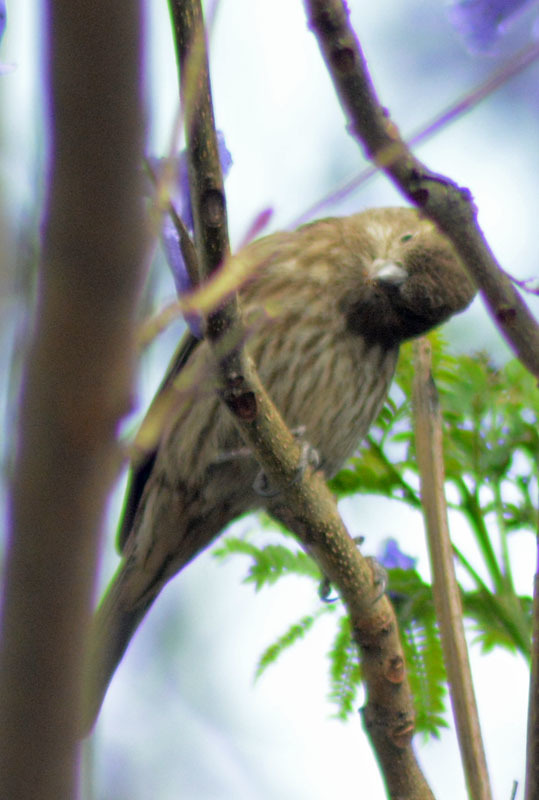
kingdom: Animalia
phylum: Chordata
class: Aves
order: Passeriformes
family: Fringillidae
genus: Haemorhous
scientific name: Haemorhous mexicanus
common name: House finch
